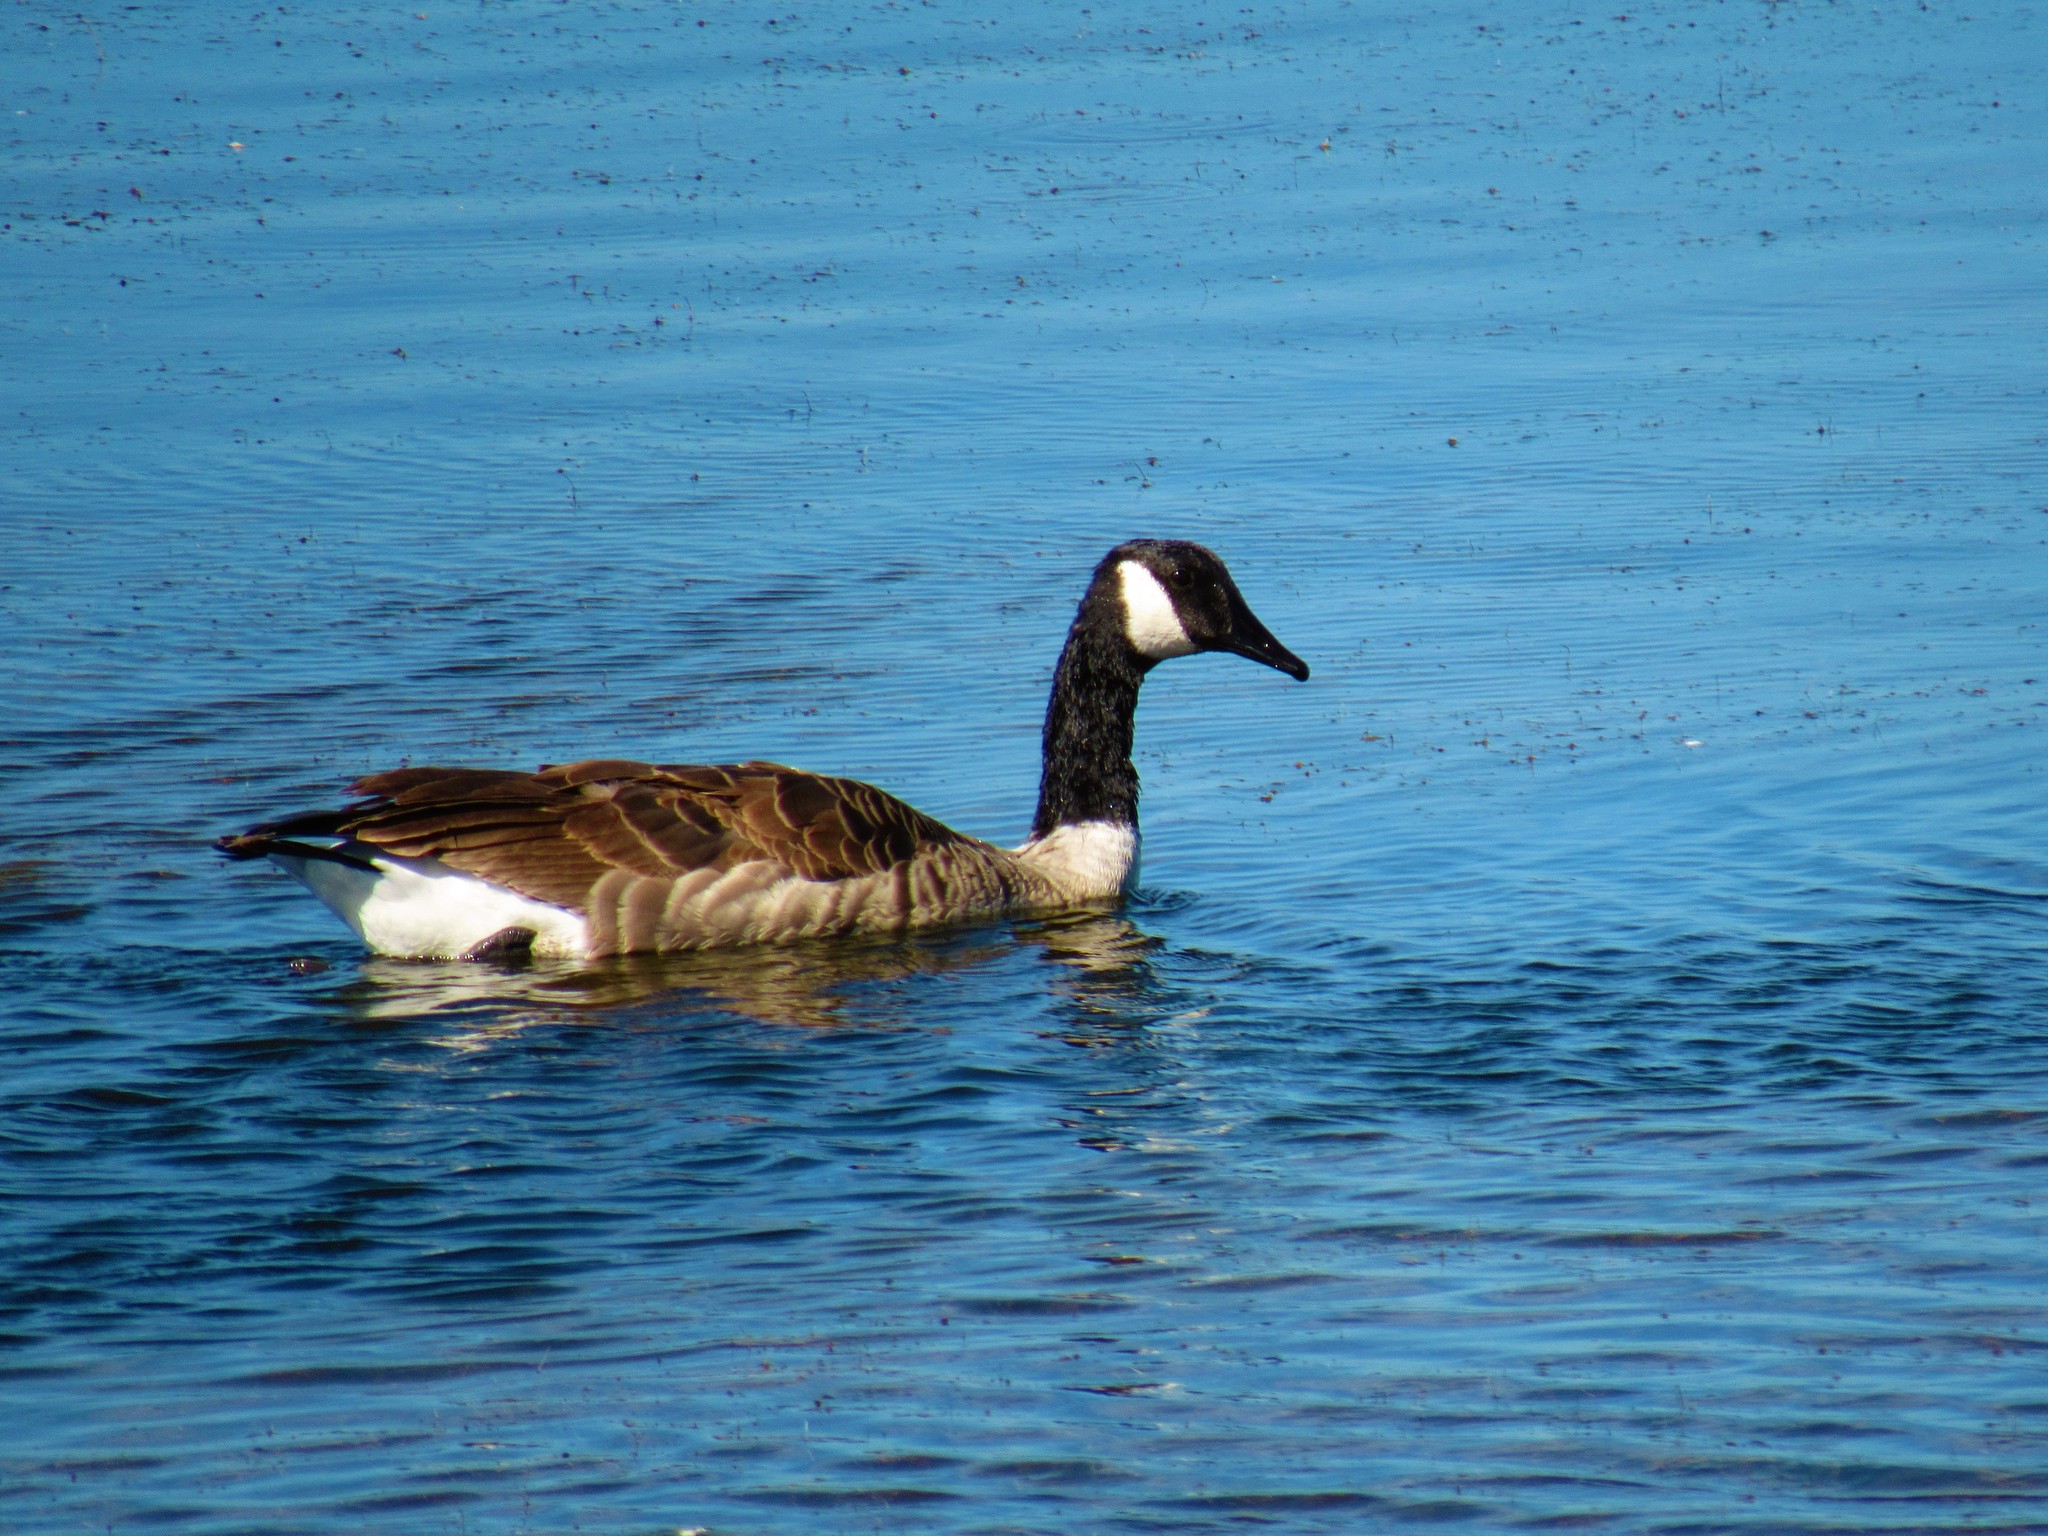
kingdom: Animalia
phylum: Chordata
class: Aves
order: Anseriformes
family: Anatidae
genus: Branta
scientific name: Branta canadensis
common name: Canada goose
